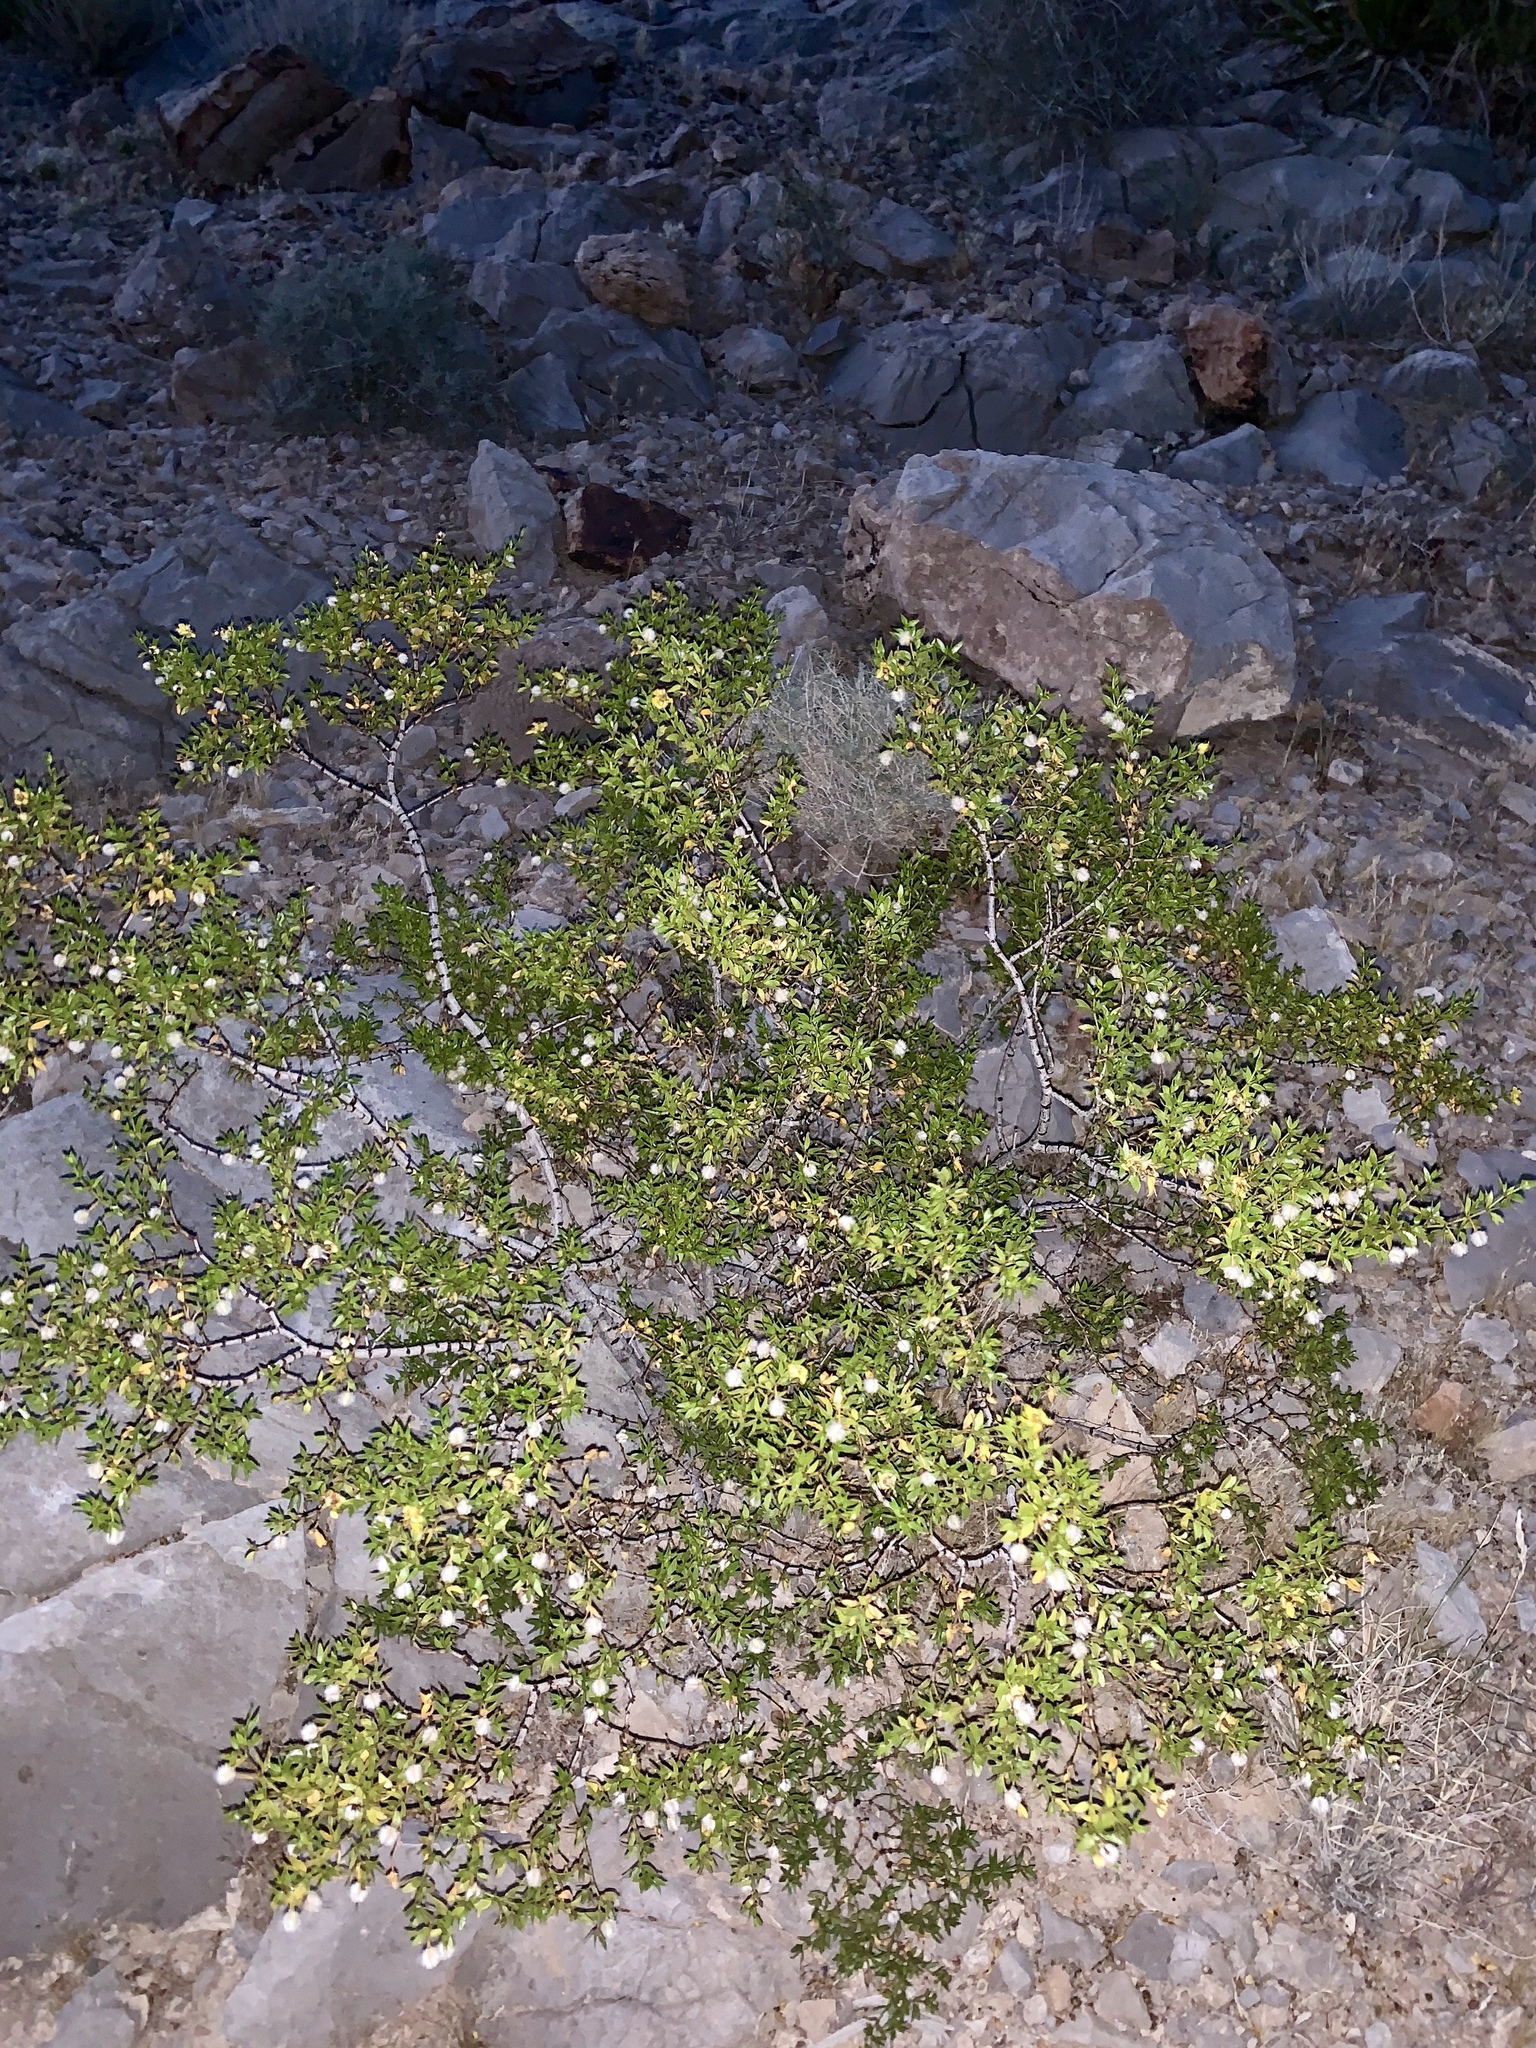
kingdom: Plantae
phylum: Tracheophyta
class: Magnoliopsida
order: Zygophyllales
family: Zygophyllaceae
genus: Larrea
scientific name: Larrea tridentata
